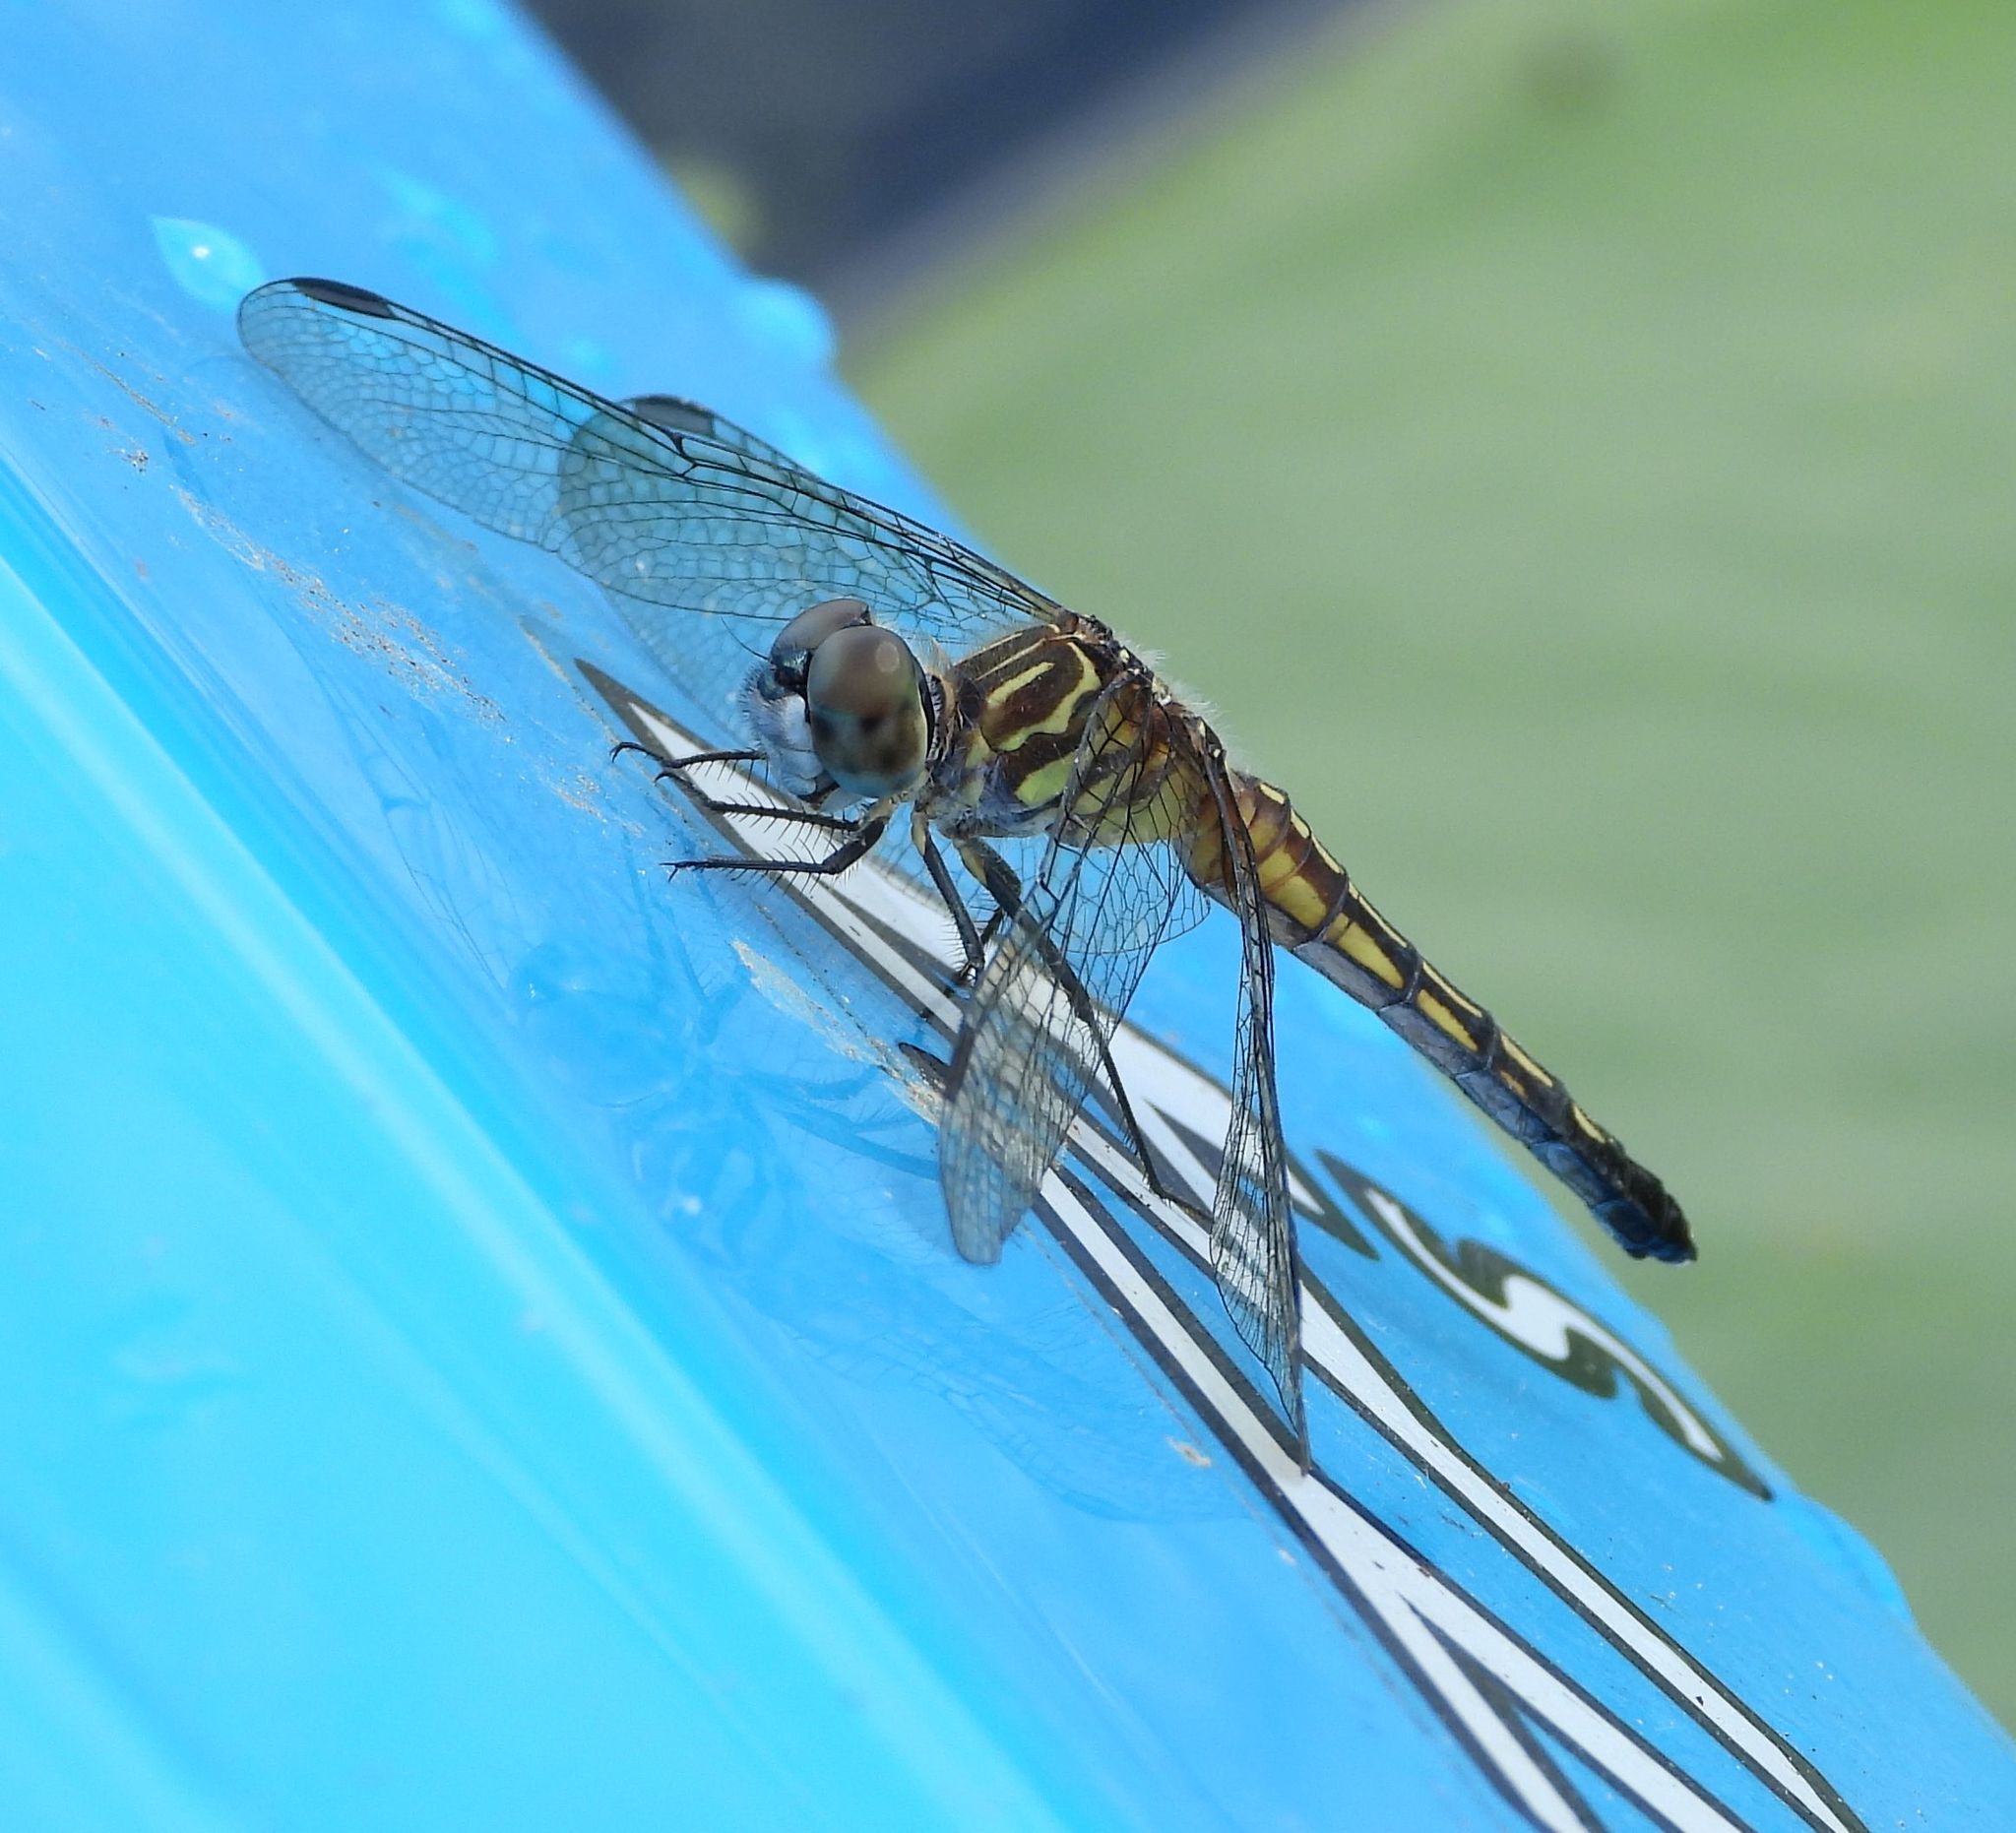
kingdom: Animalia
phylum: Arthropoda
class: Insecta
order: Odonata
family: Libellulidae
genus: Pachydiplax
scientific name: Pachydiplax longipennis
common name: Blue dasher
